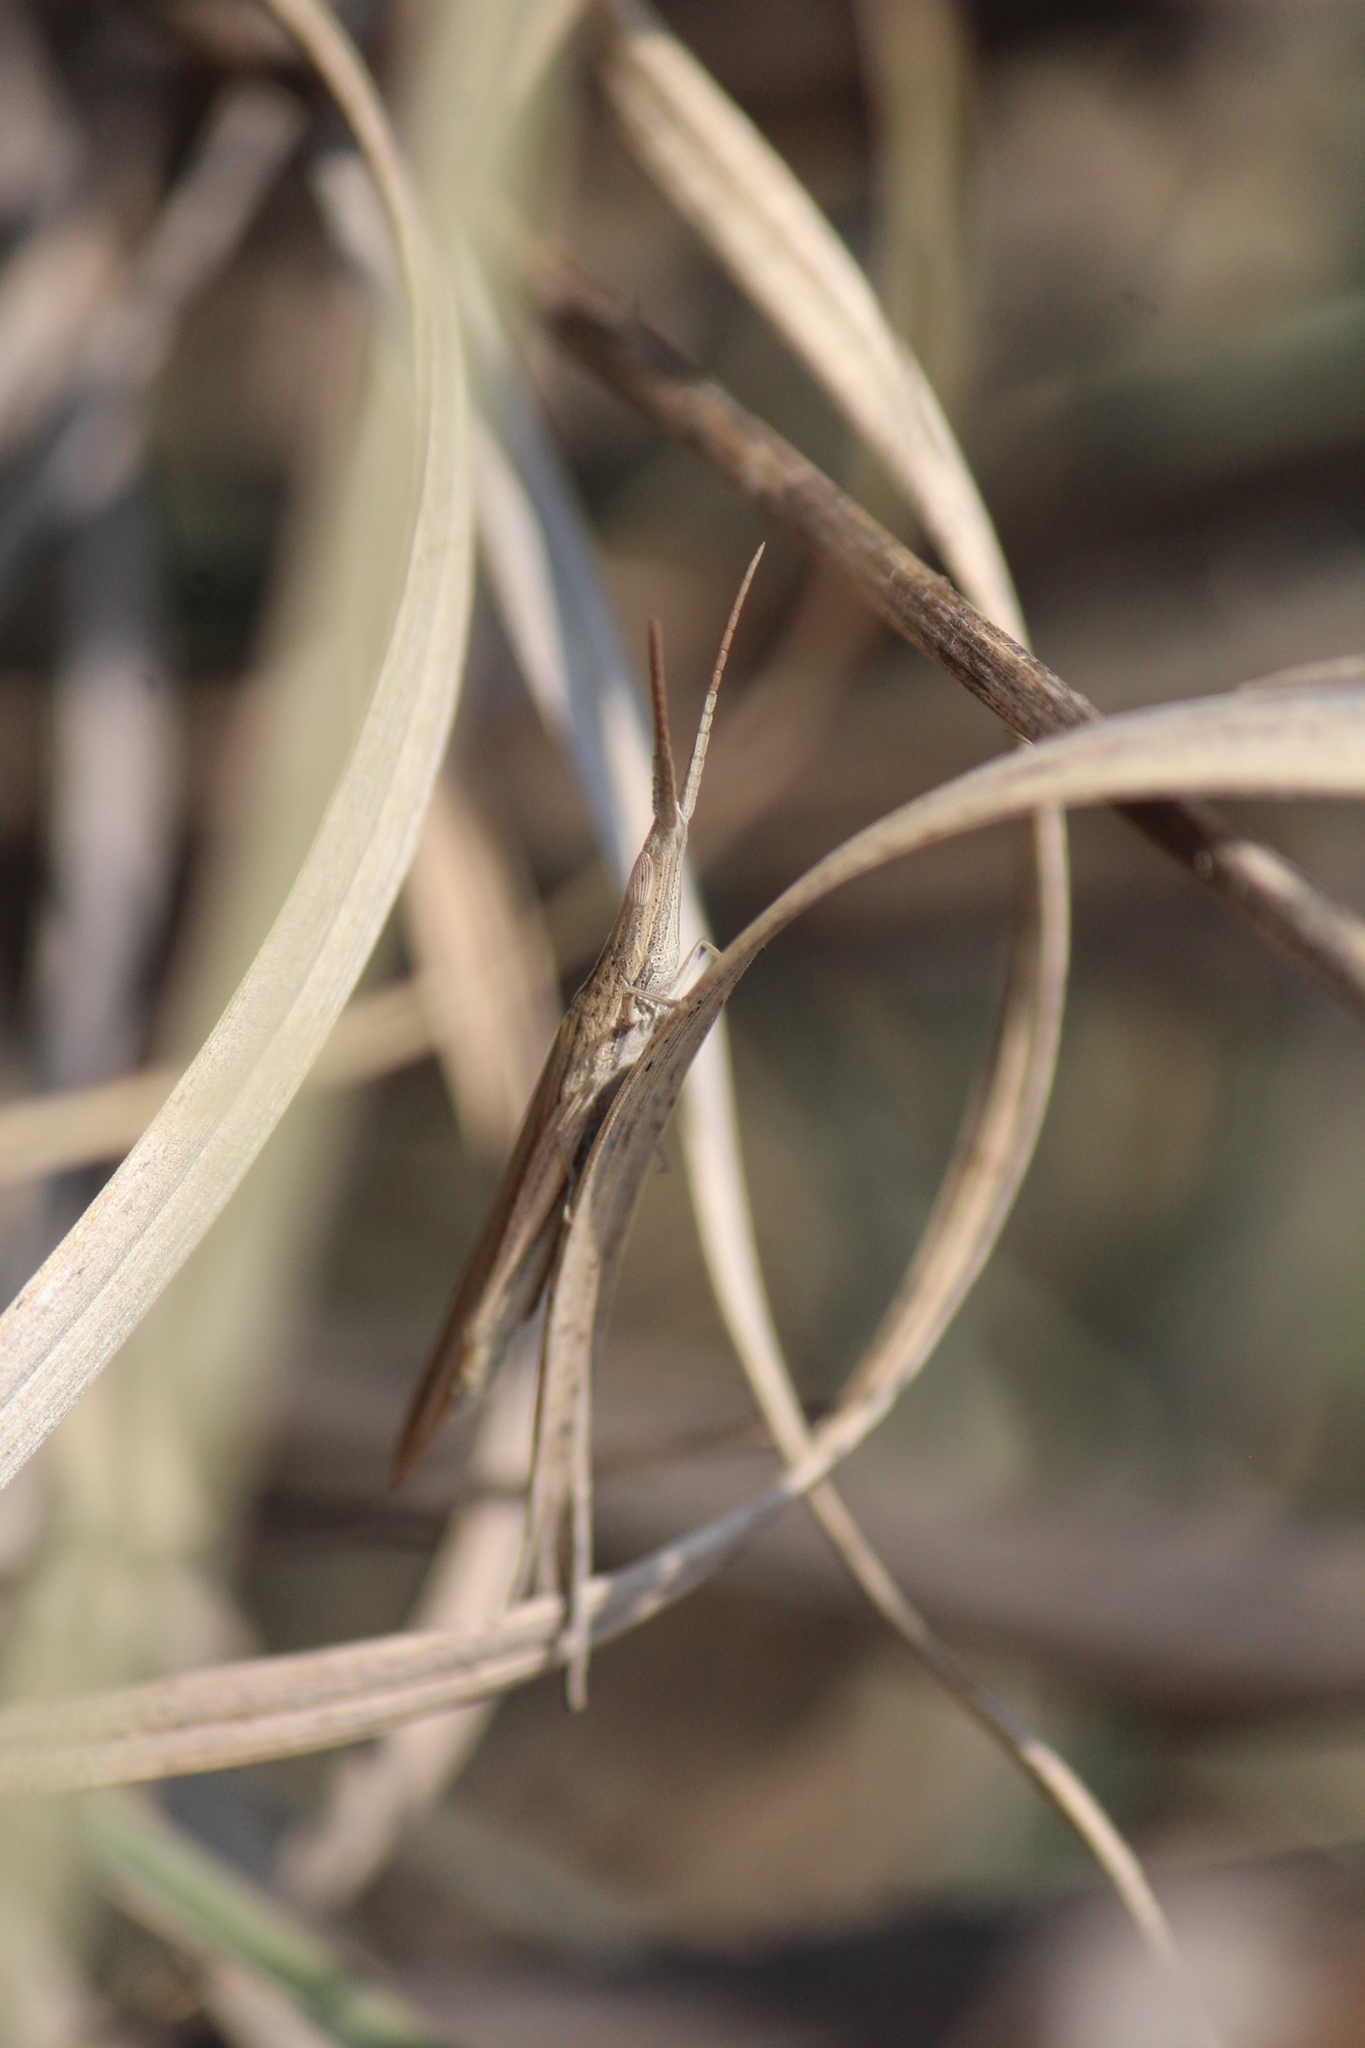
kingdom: Animalia
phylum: Arthropoda
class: Insecta
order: Orthoptera
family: Acrididae
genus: Achurum
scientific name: Achurum sumichrasti
